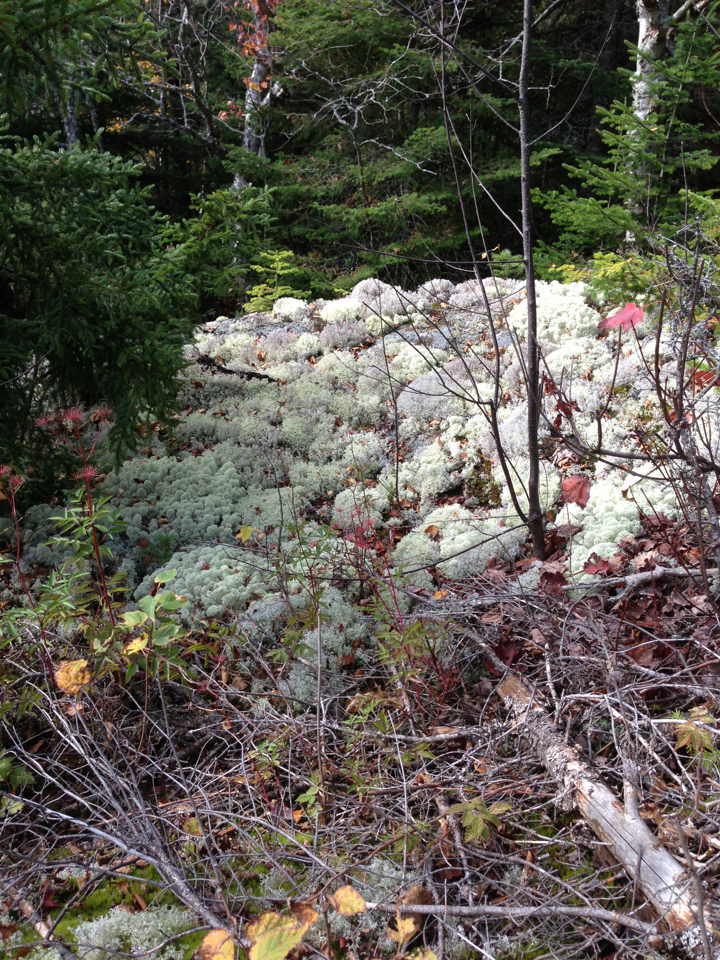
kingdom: Fungi
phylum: Ascomycota
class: Lecanoromycetes
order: Lecanorales
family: Cladoniaceae
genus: Cladonia
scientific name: Cladonia stellaris
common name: Star-tipped reindeer lichen
